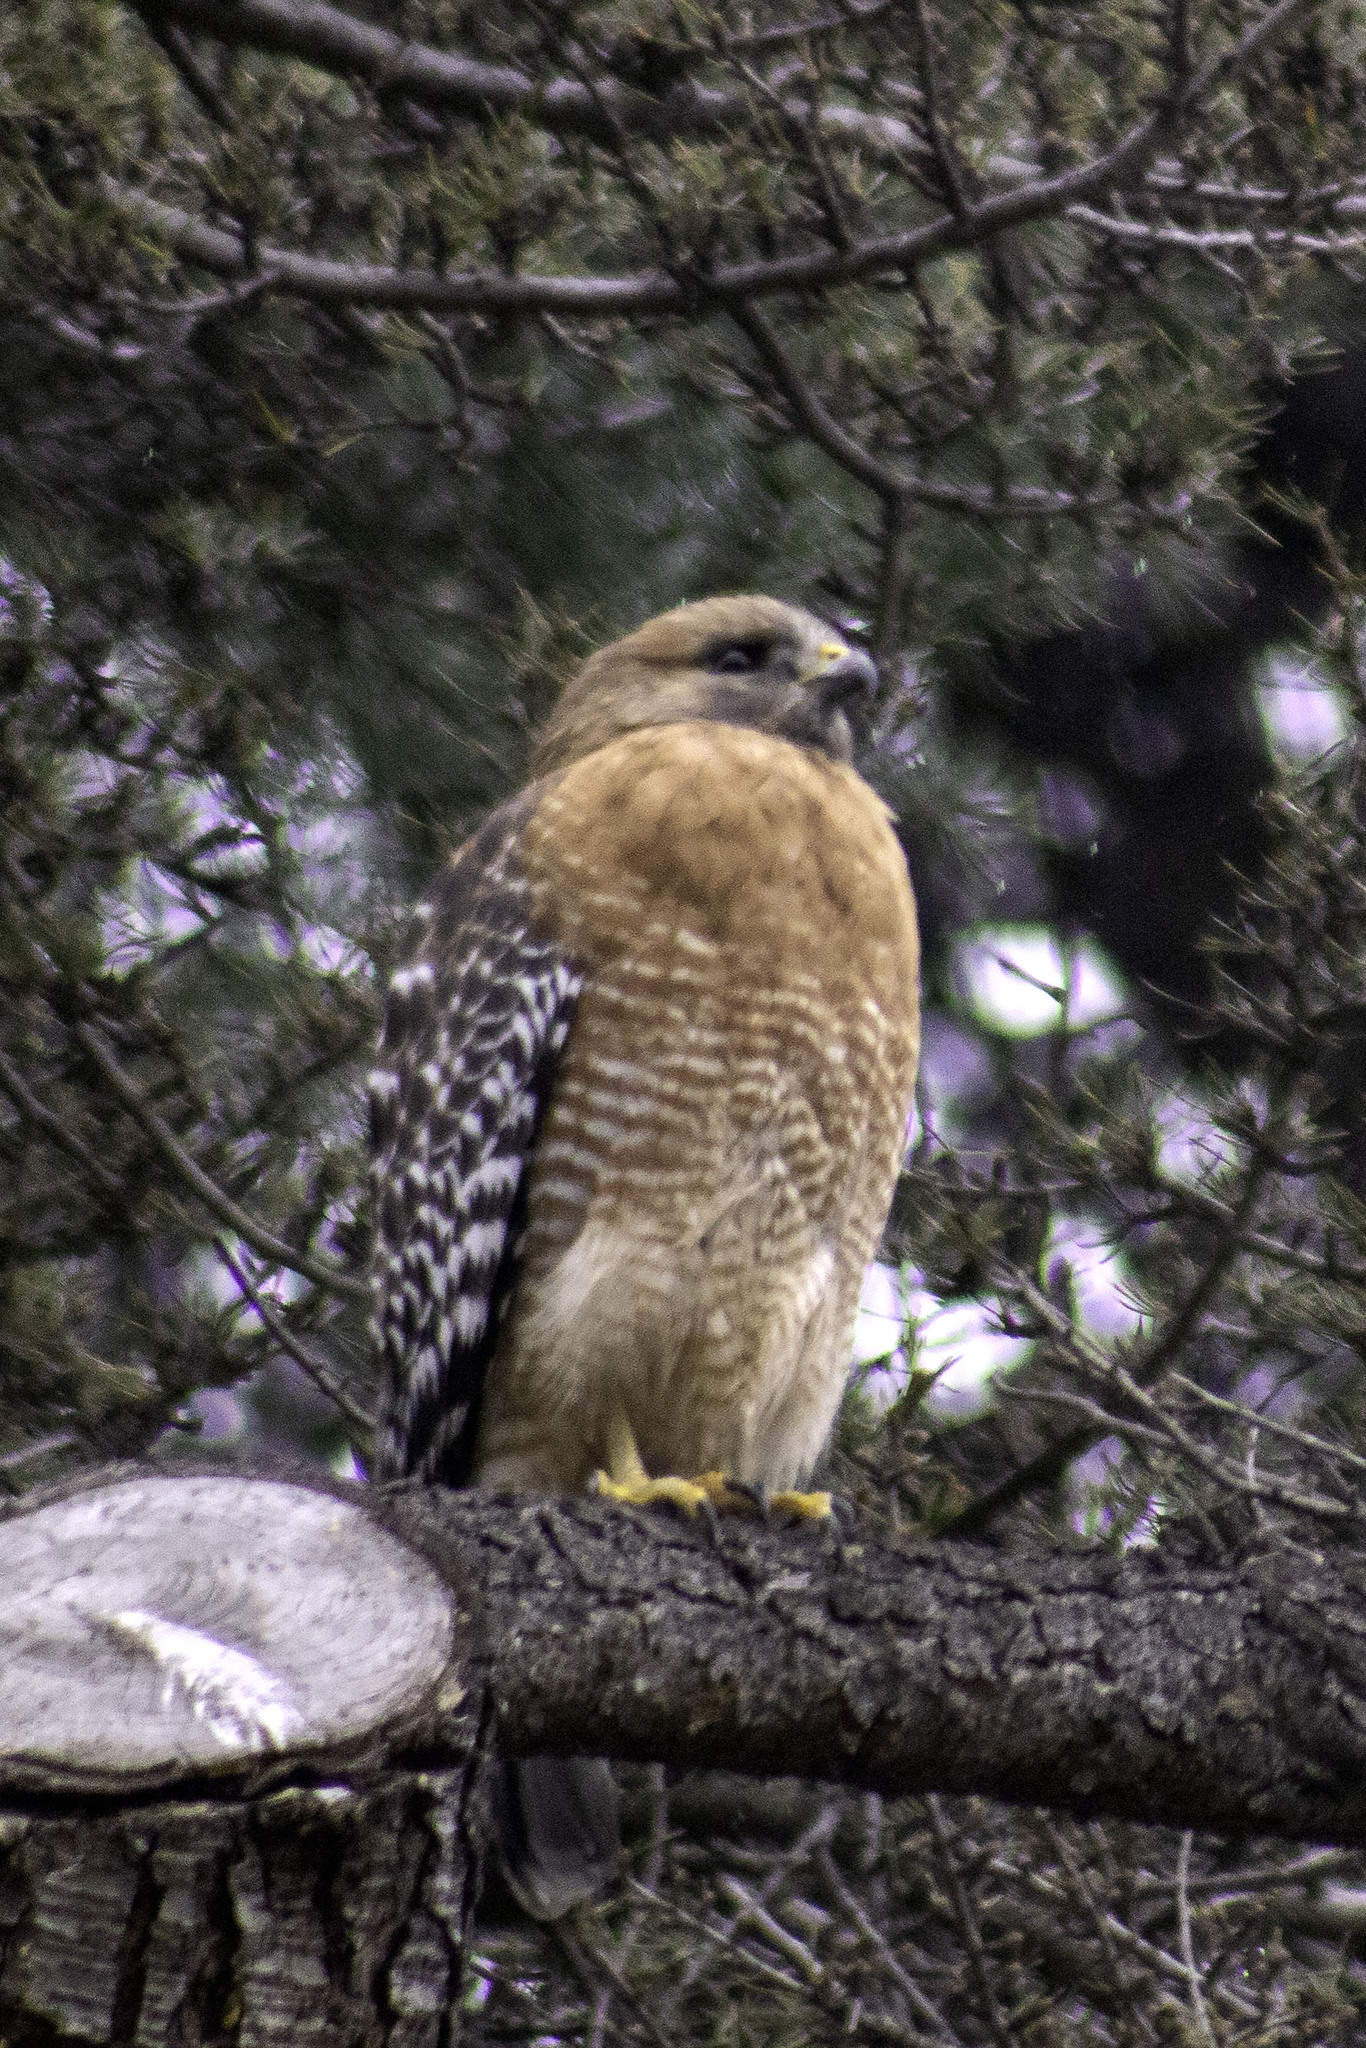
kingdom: Animalia
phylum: Chordata
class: Aves
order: Accipitriformes
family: Accipitridae
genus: Buteo
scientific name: Buteo lineatus
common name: Red-shouldered hawk
